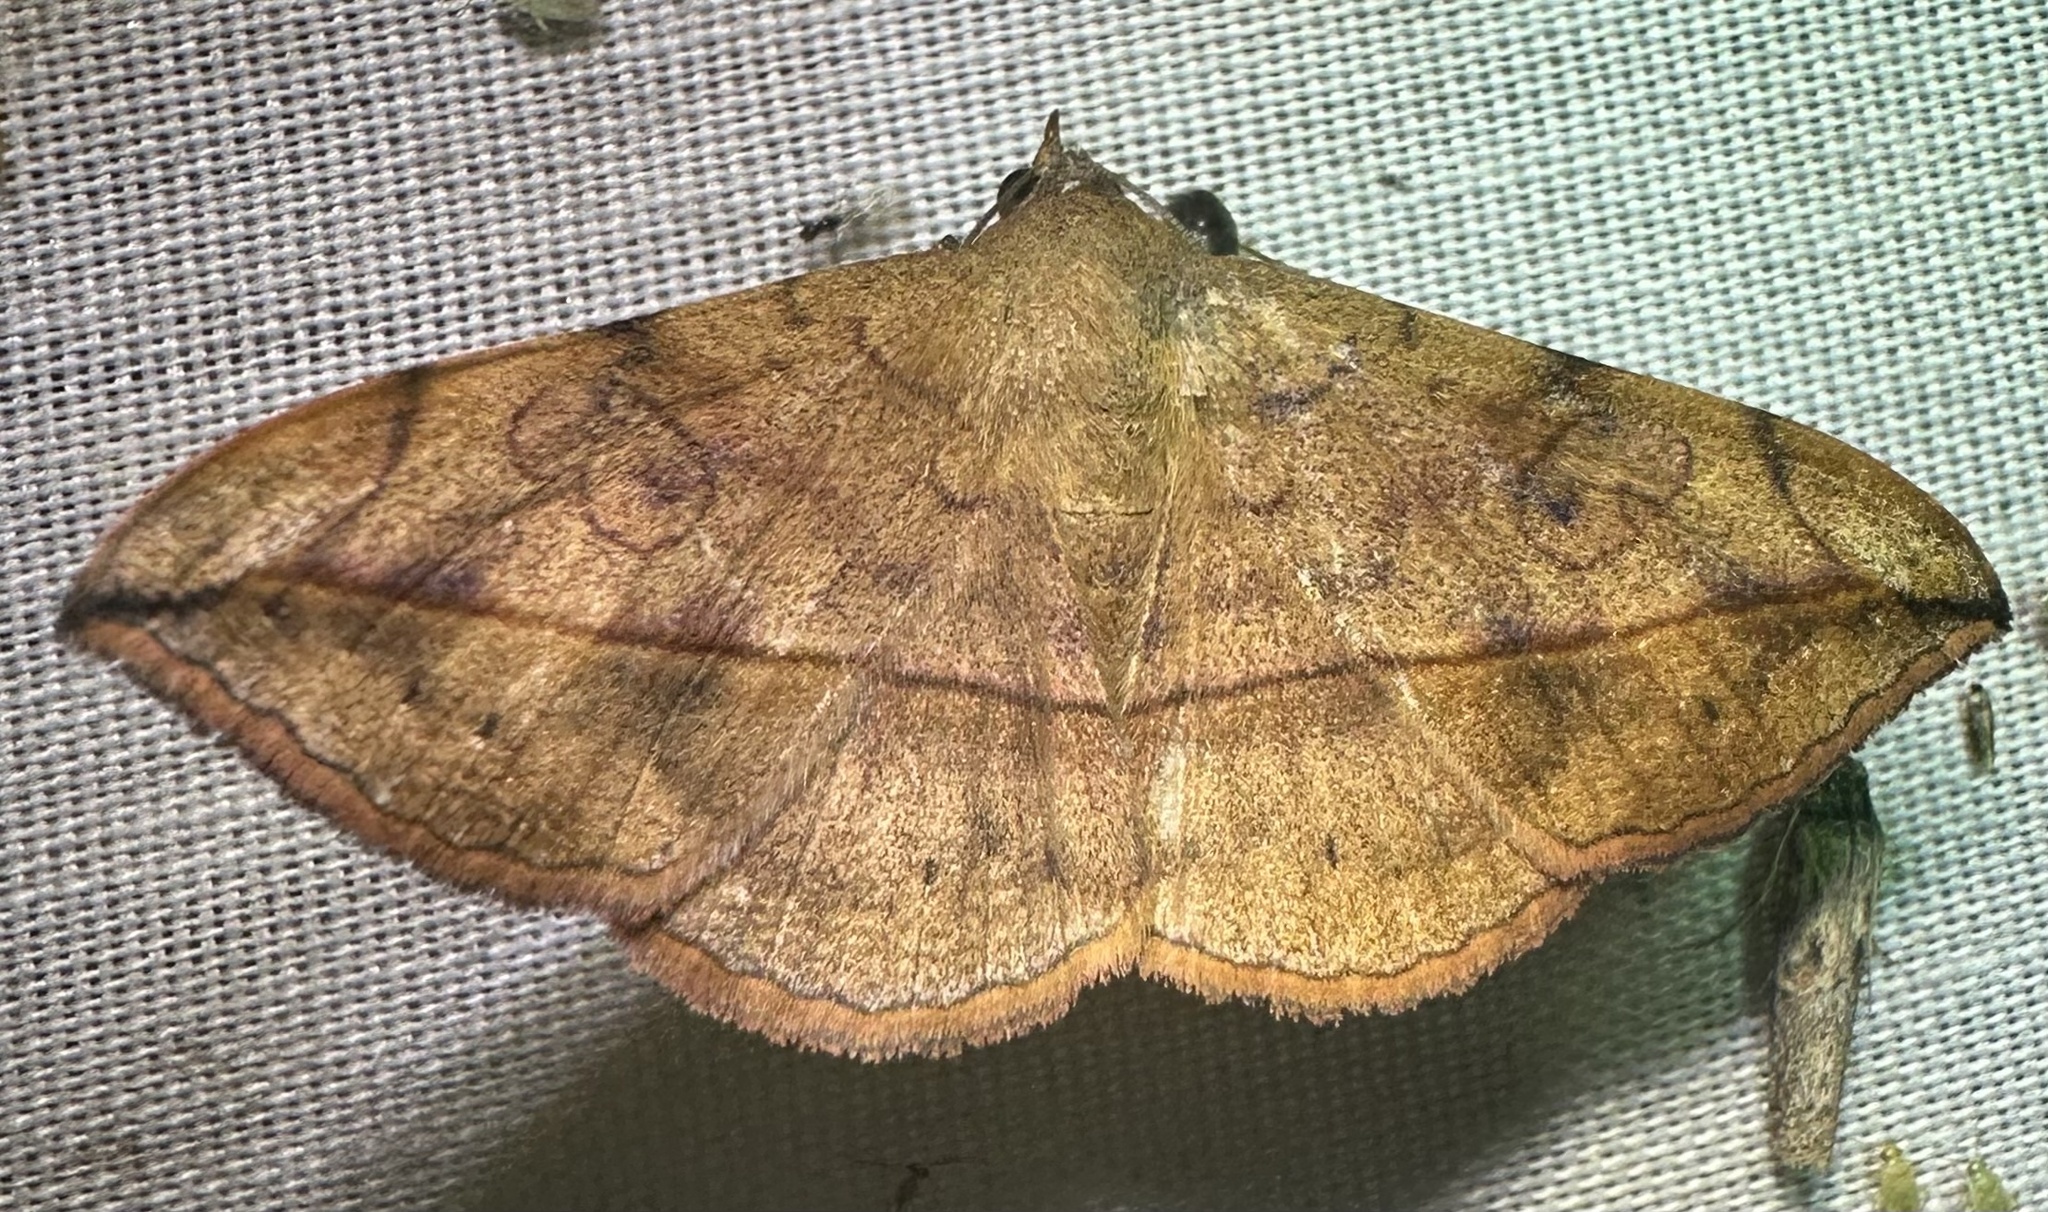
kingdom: Animalia
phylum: Arthropoda
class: Insecta
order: Lepidoptera
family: Erebidae
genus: Anticarsia
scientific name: Anticarsia irrorata
